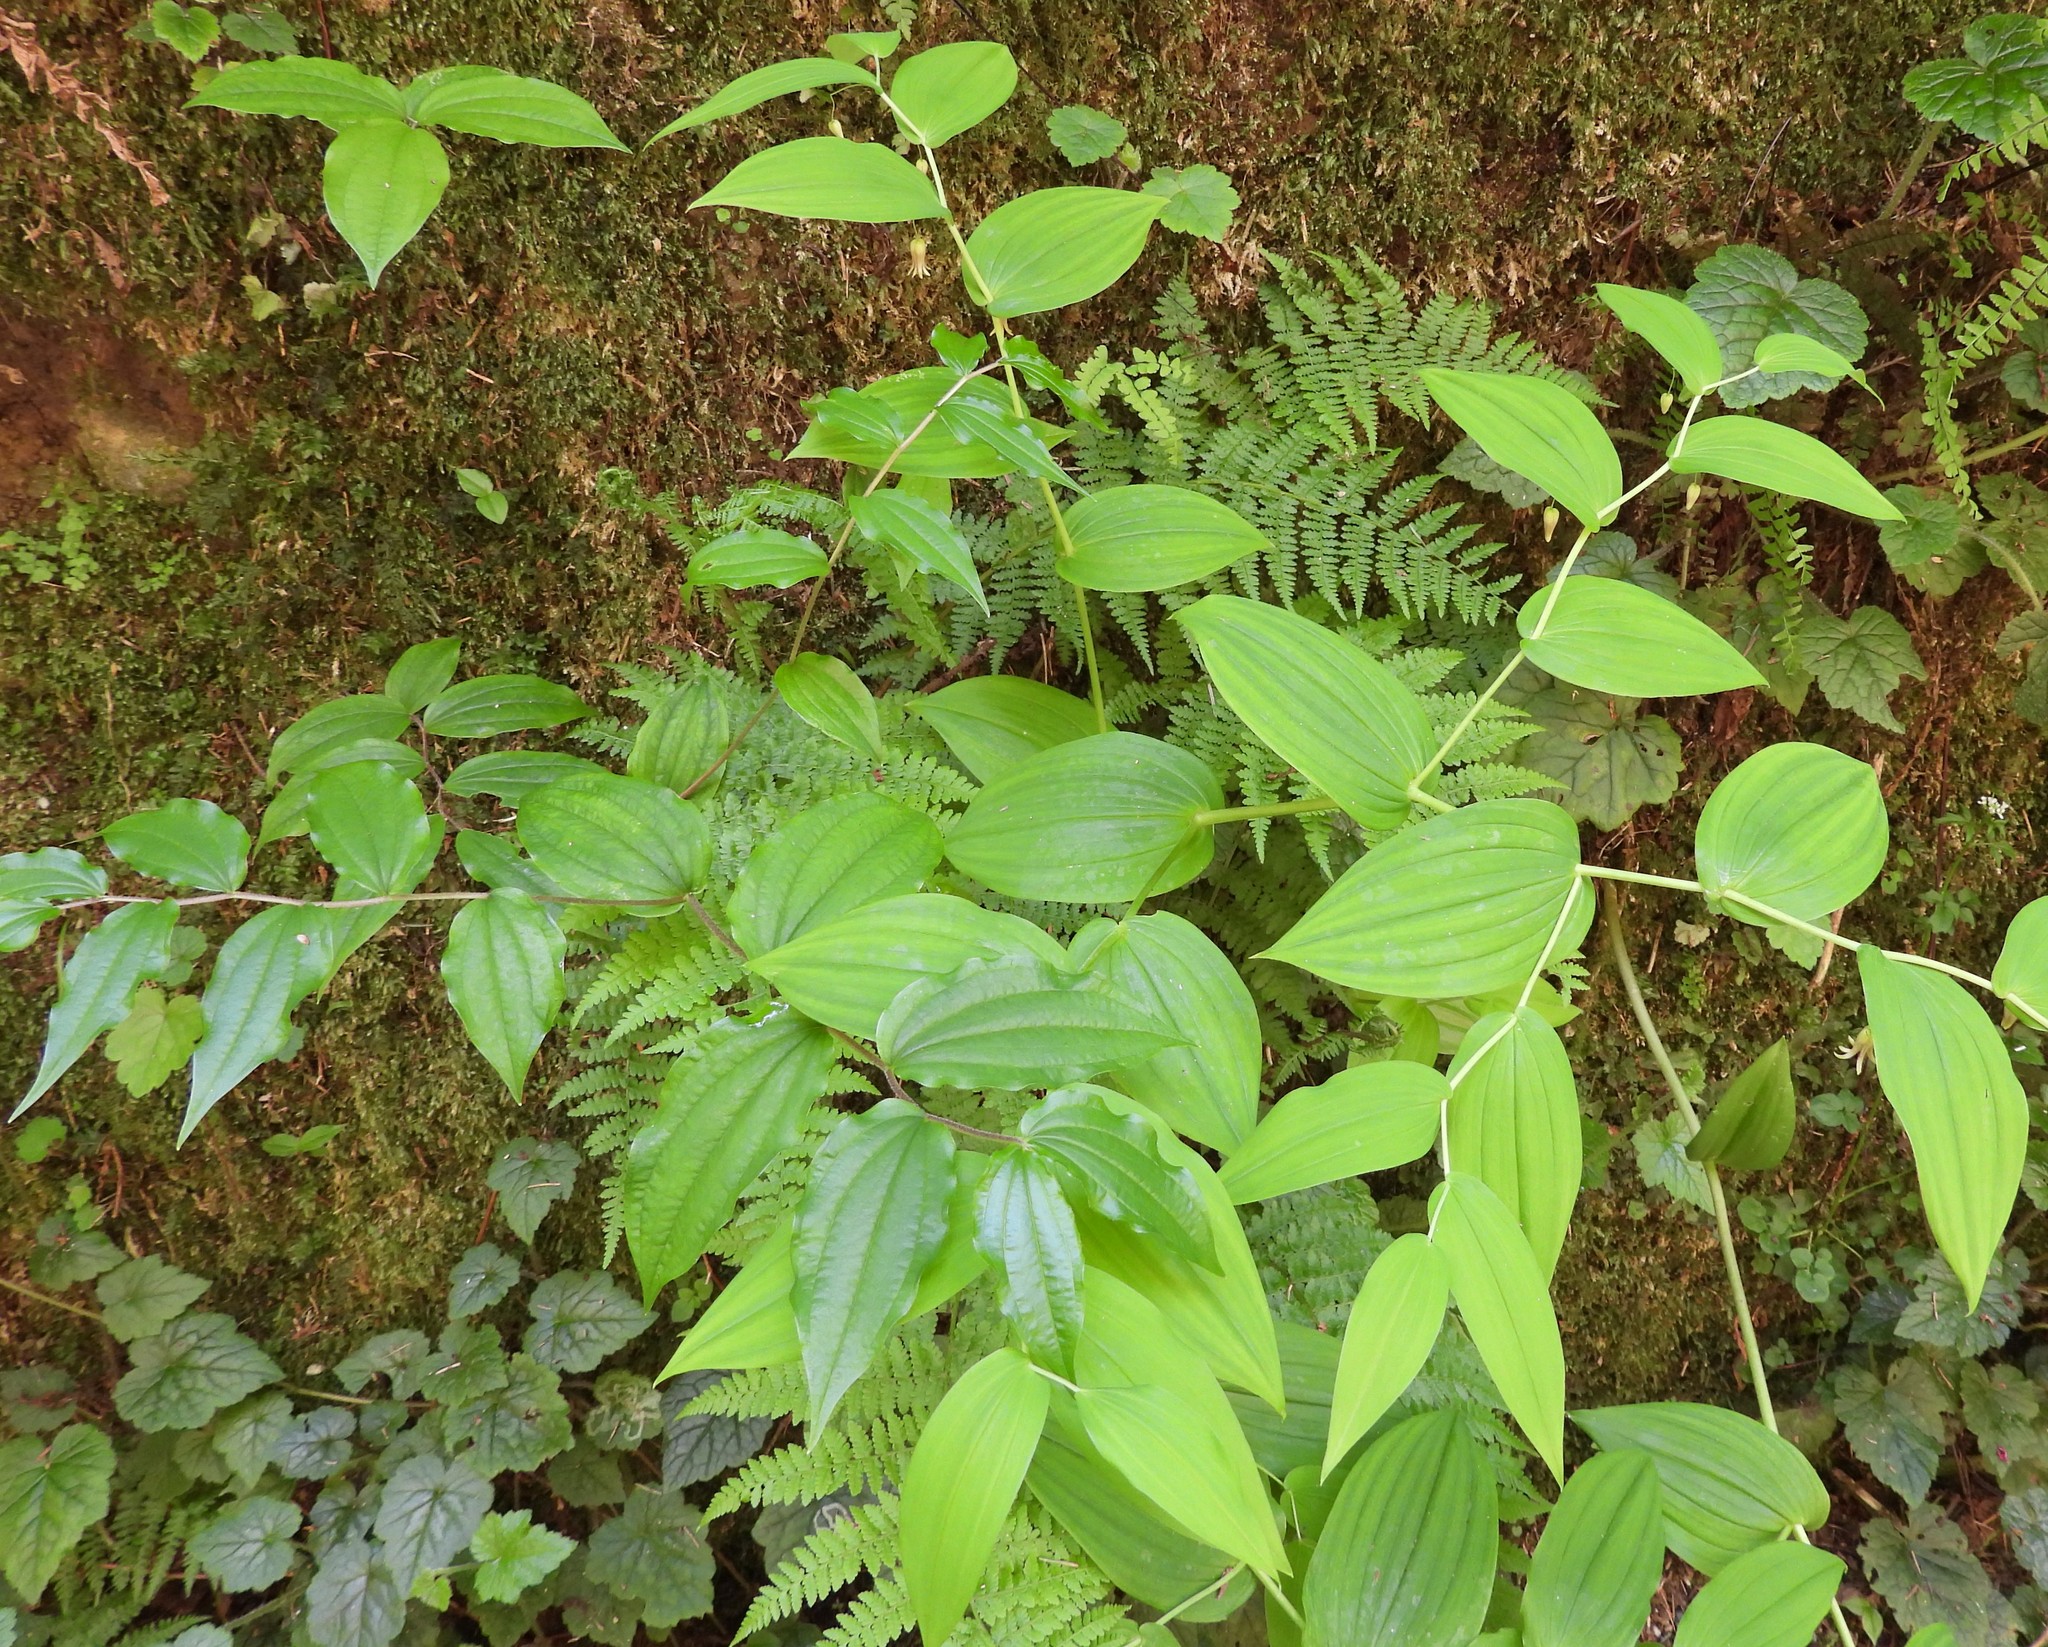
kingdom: Plantae
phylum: Tracheophyta
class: Liliopsida
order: Liliales
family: Liliaceae
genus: Streptopus
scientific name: Streptopus amplexifolius
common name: Clasp twisted stalk
